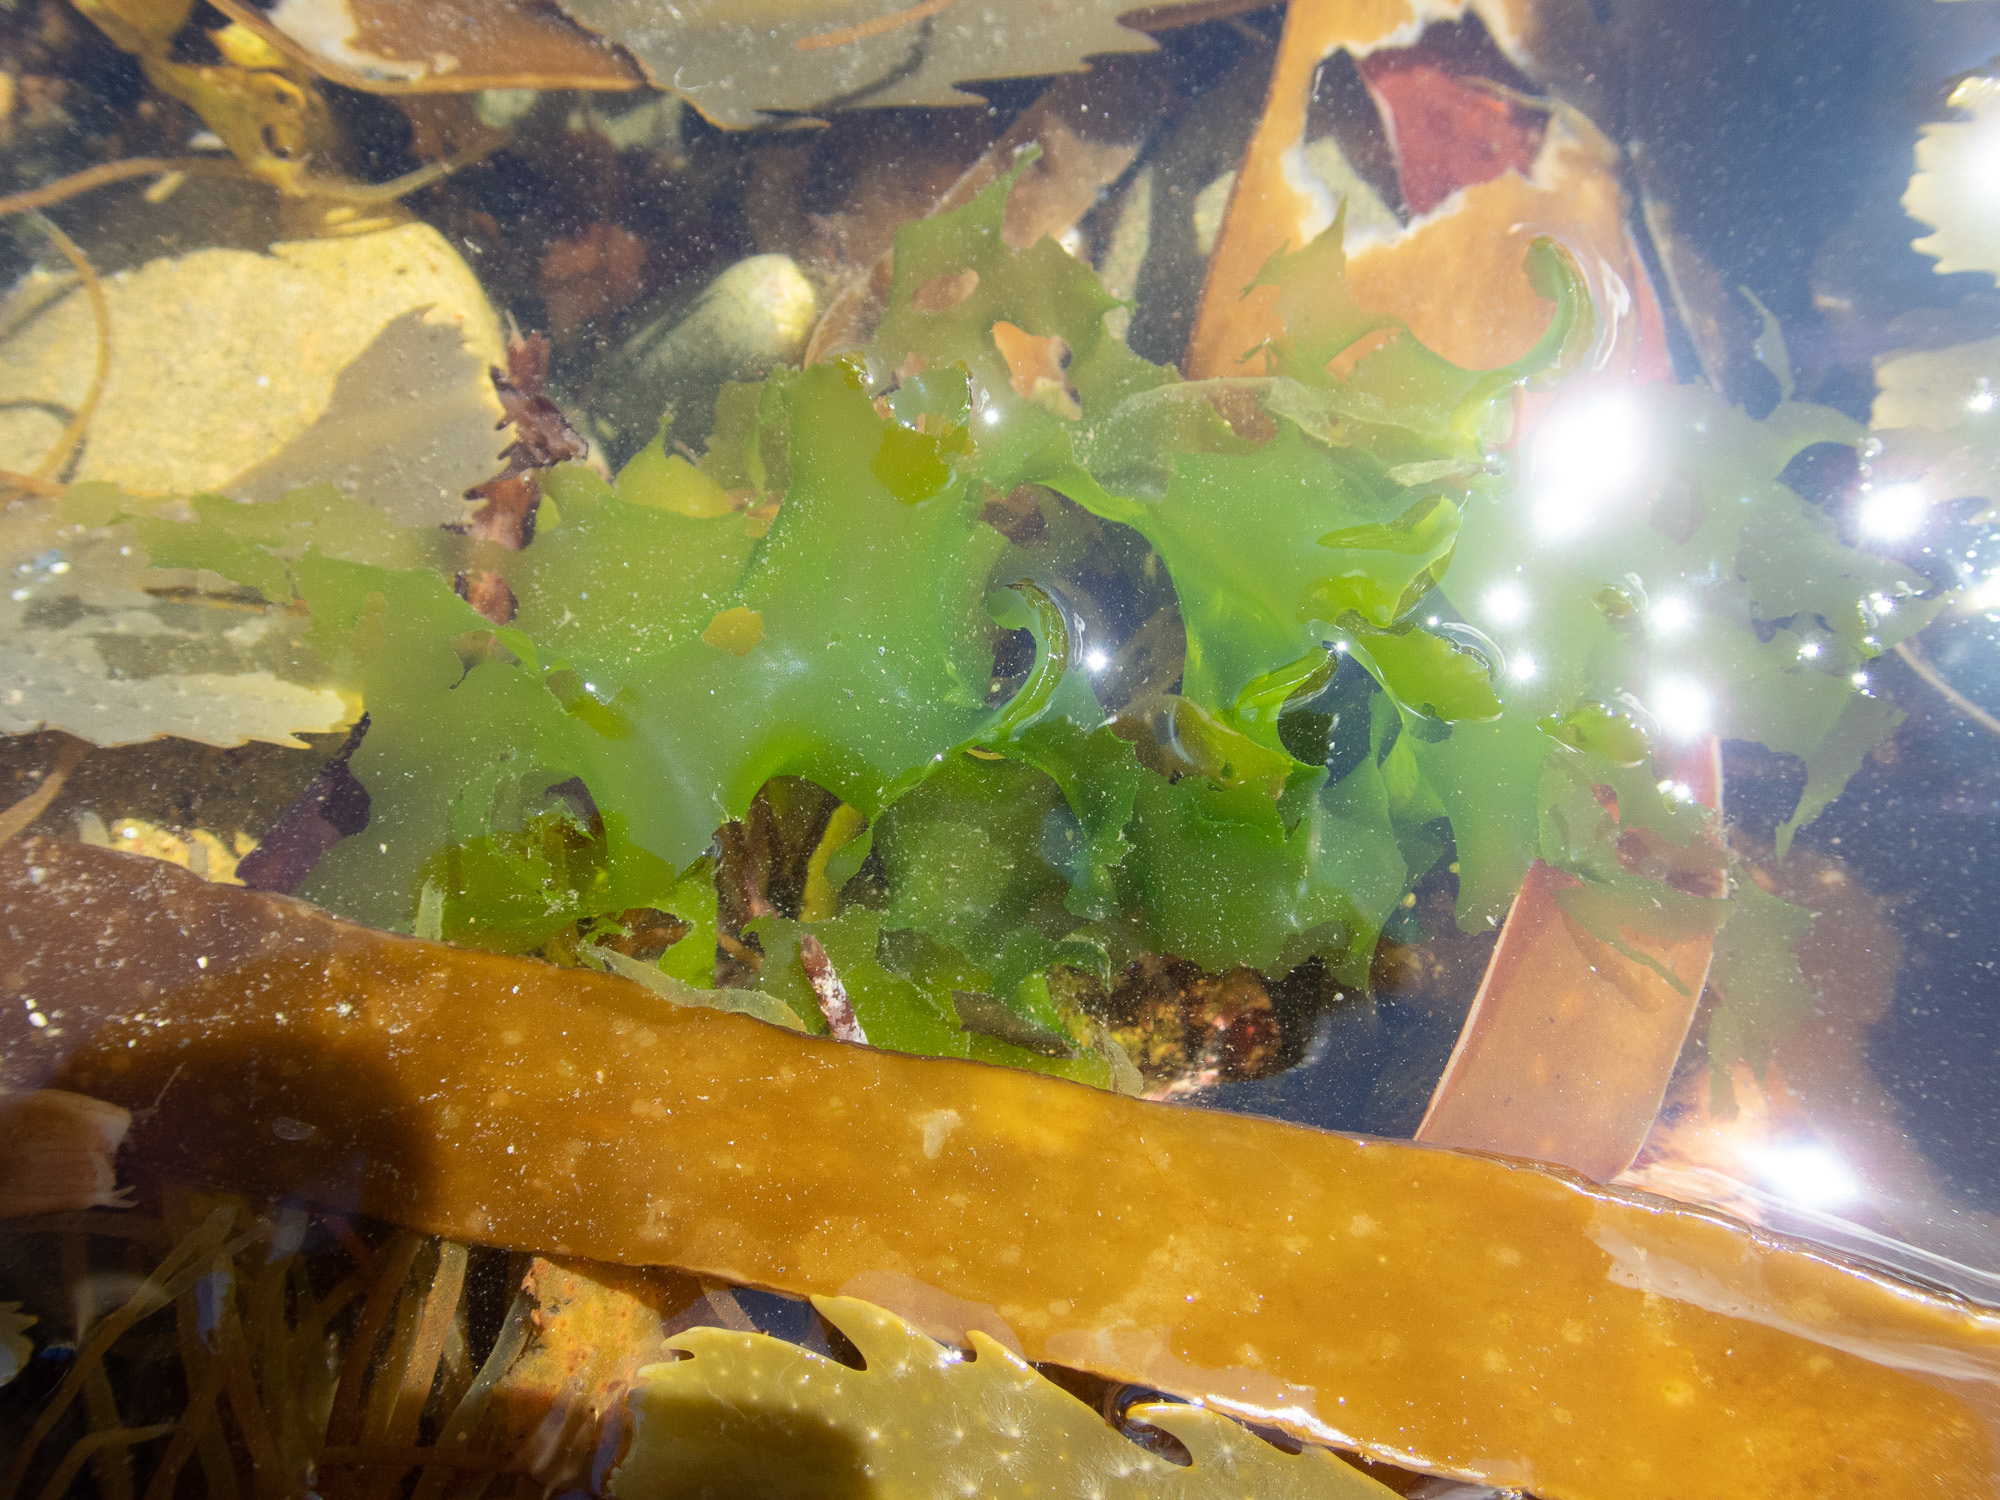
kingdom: Plantae
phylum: Chlorophyta
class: Ulvophyceae
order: Ulvales
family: Ulvaceae
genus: Ulva
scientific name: Ulva lactuca
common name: Sea lettuce
